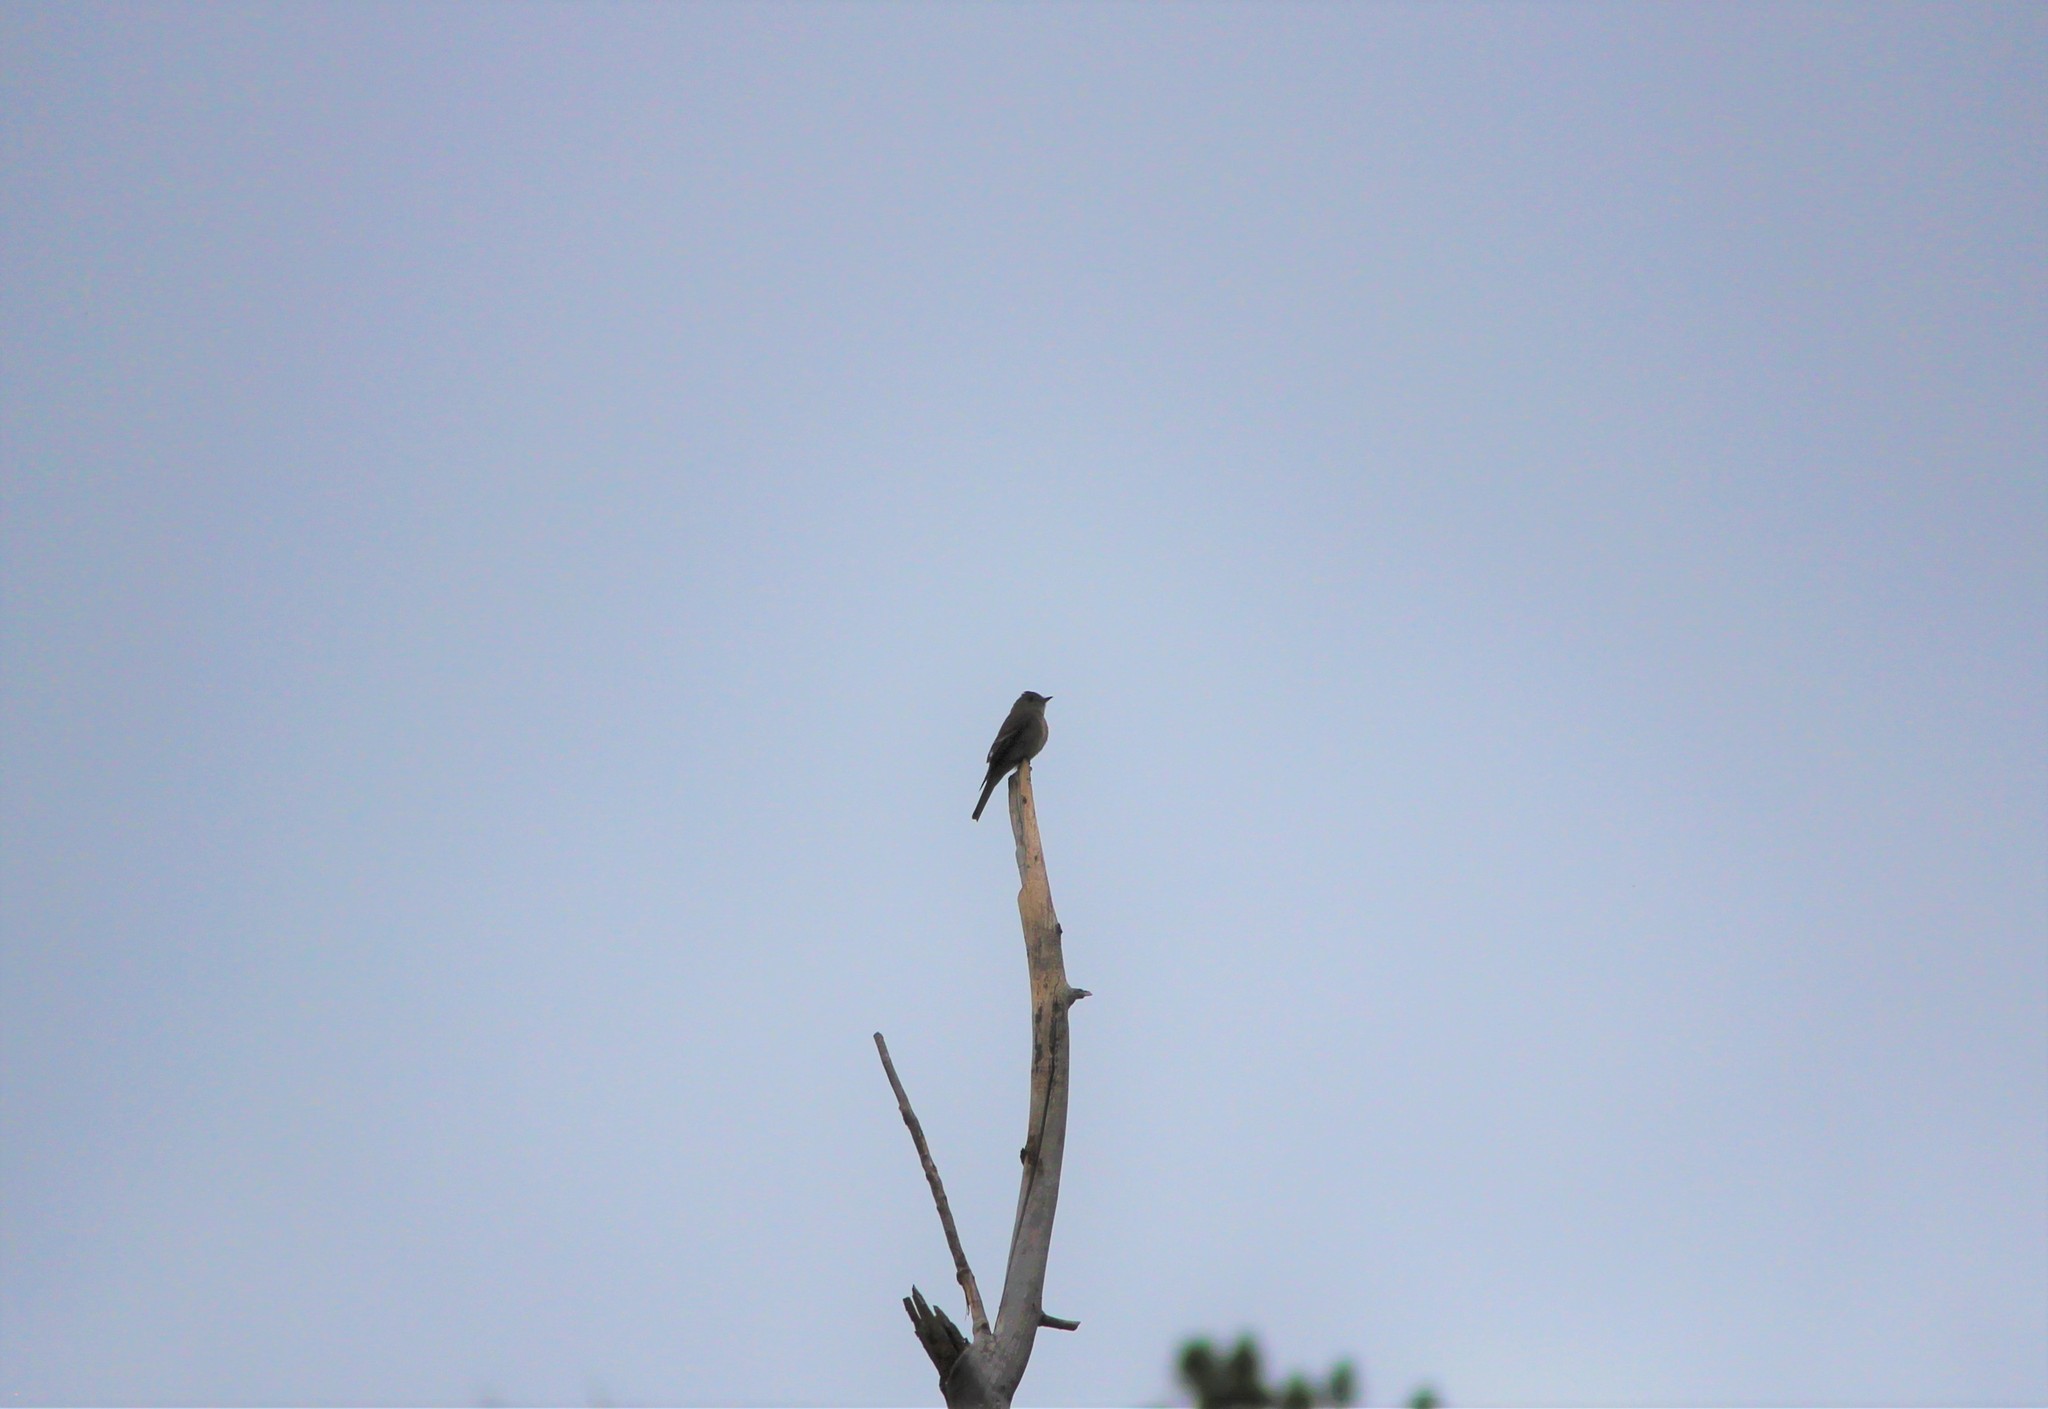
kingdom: Animalia
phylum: Chordata
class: Aves
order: Passeriformes
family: Tyrannidae
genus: Contopus
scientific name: Contopus sordidulus
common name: Western wood-pewee
